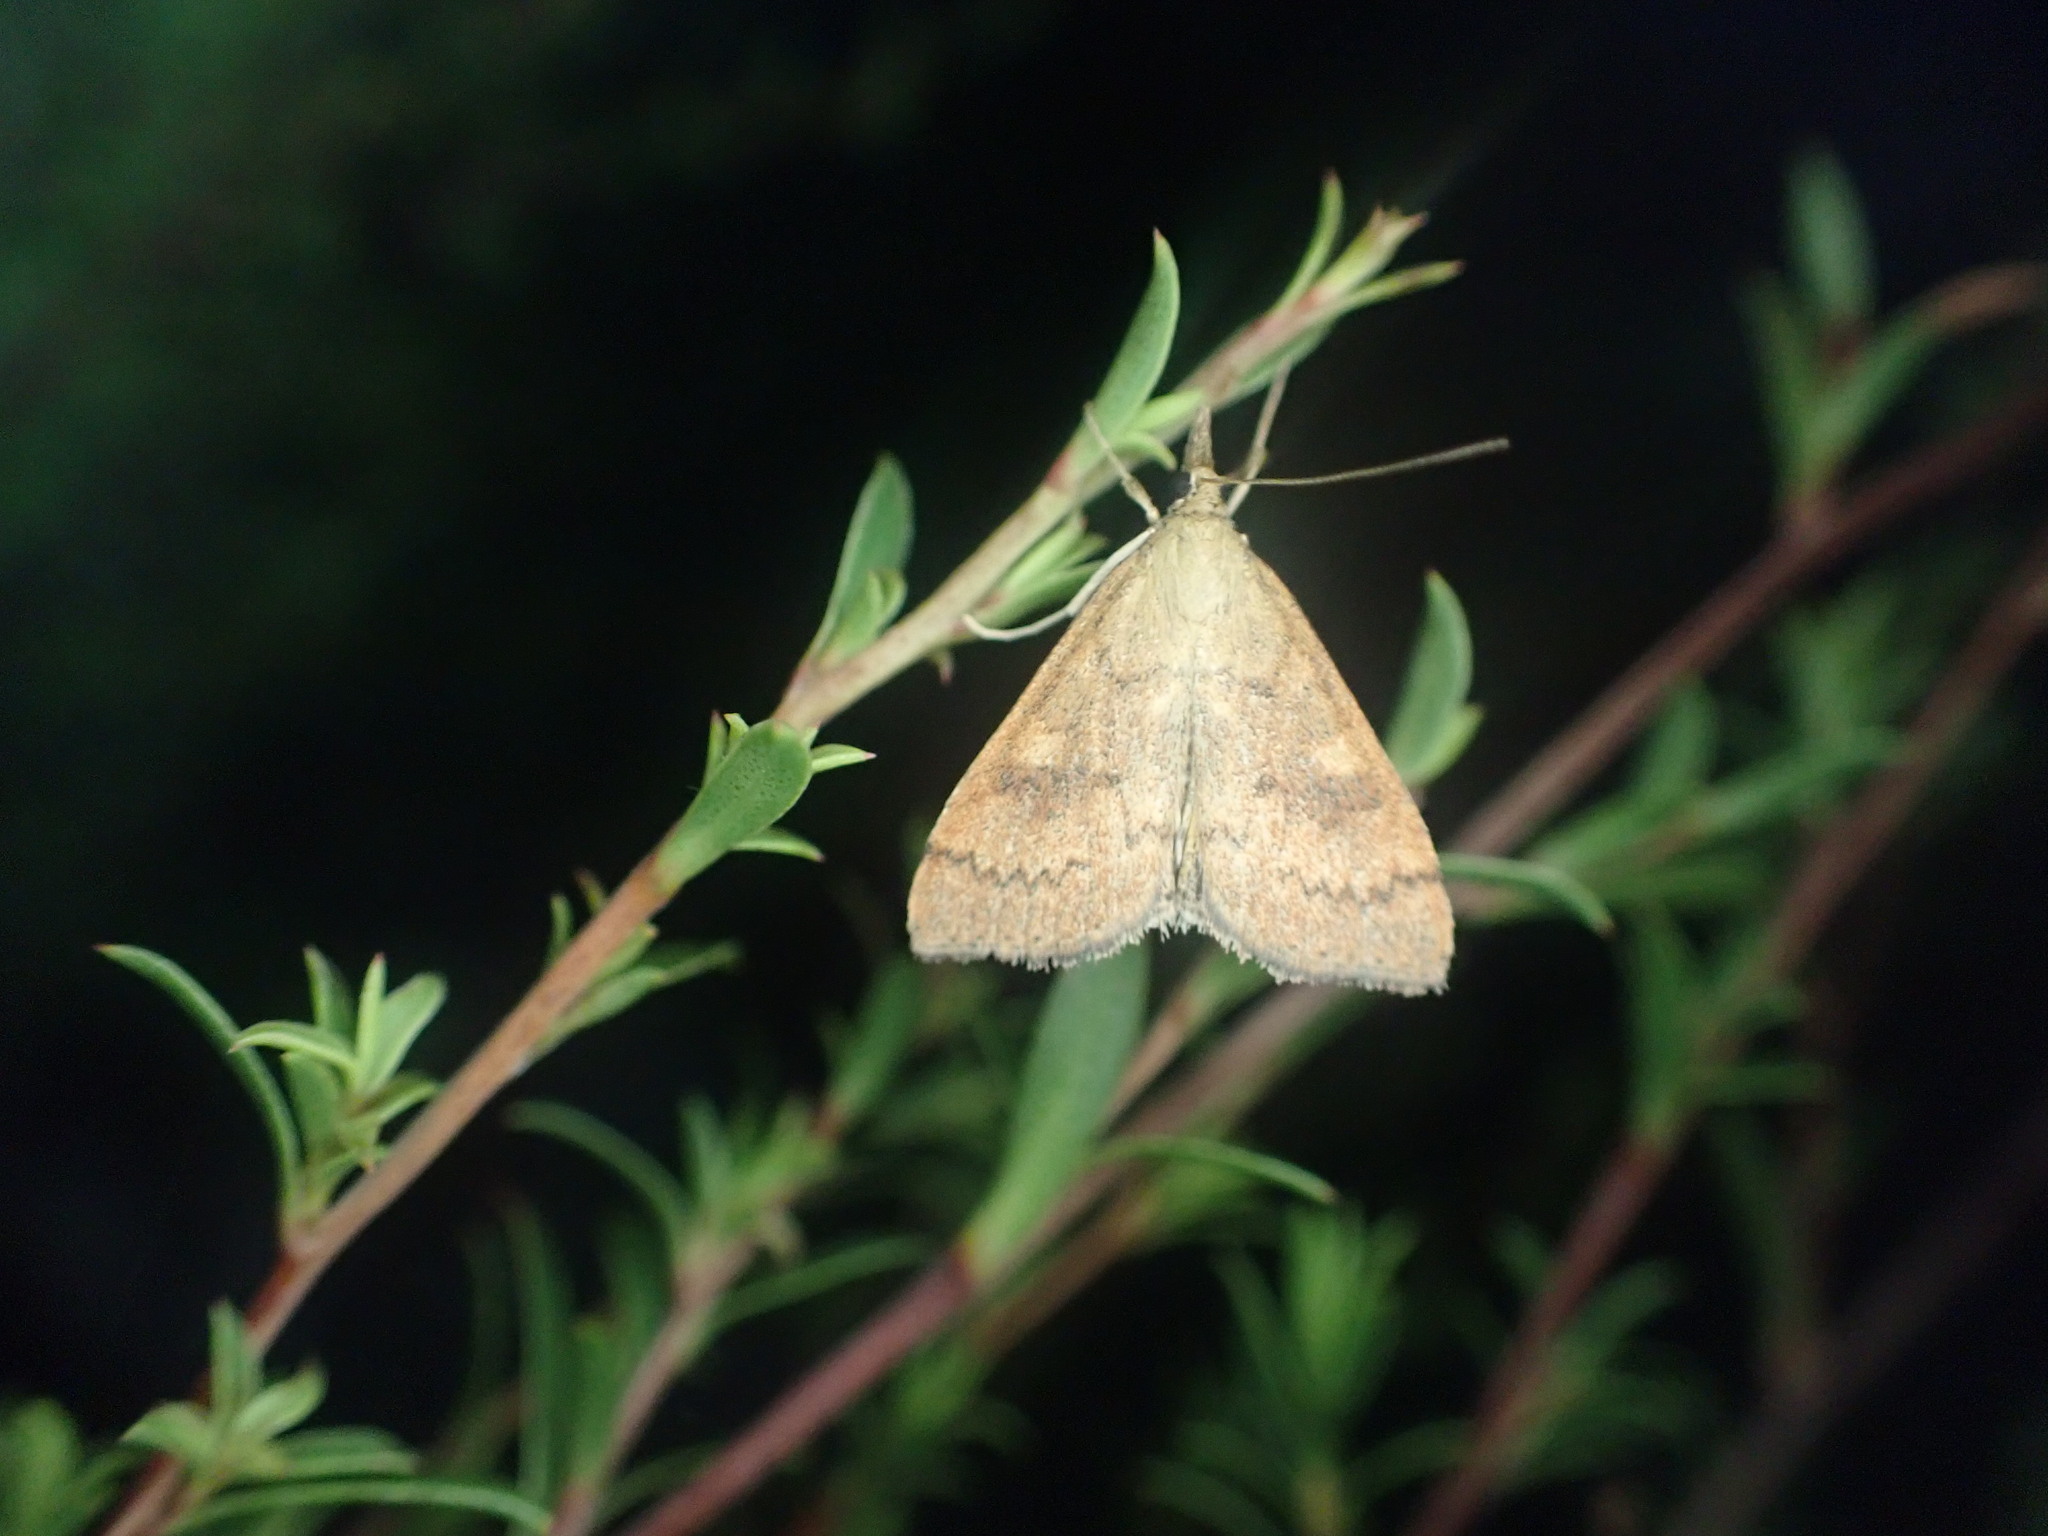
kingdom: Animalia
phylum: Arthropoda
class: Insecta
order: Lepidoptera
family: Crambidae
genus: Udea
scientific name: Udea Mnesictena flavidalis
